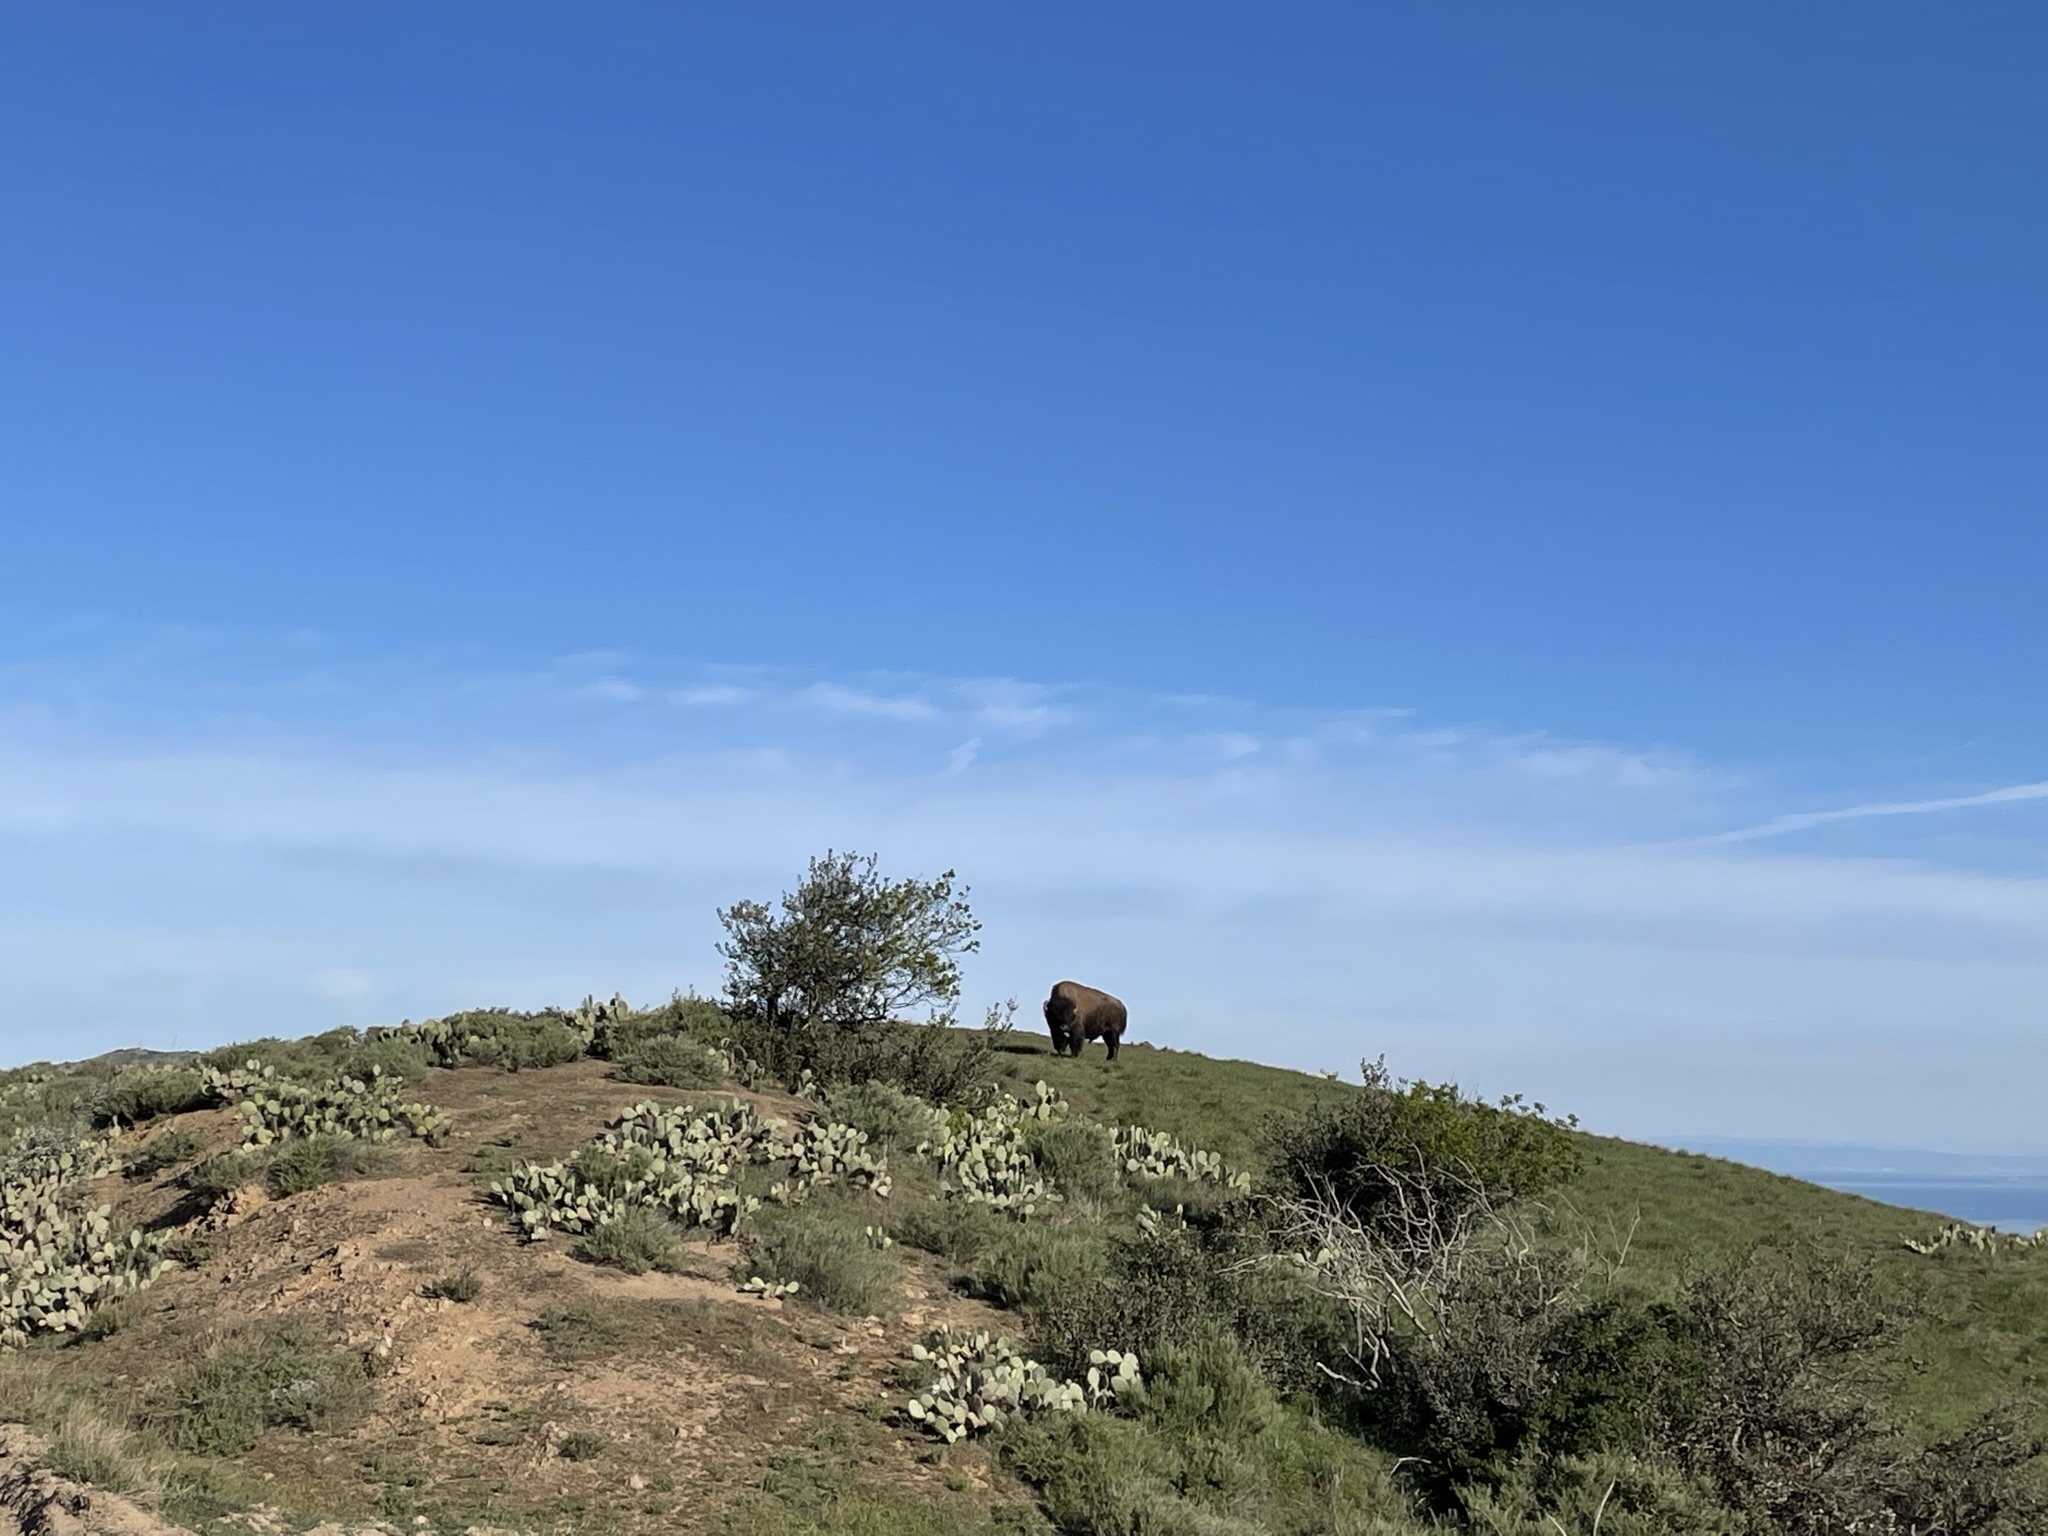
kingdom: Animalia
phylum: Chordata
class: Mammalia
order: Artiodactyla
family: Bovidae
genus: Bison
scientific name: Bison bison
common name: American bison
